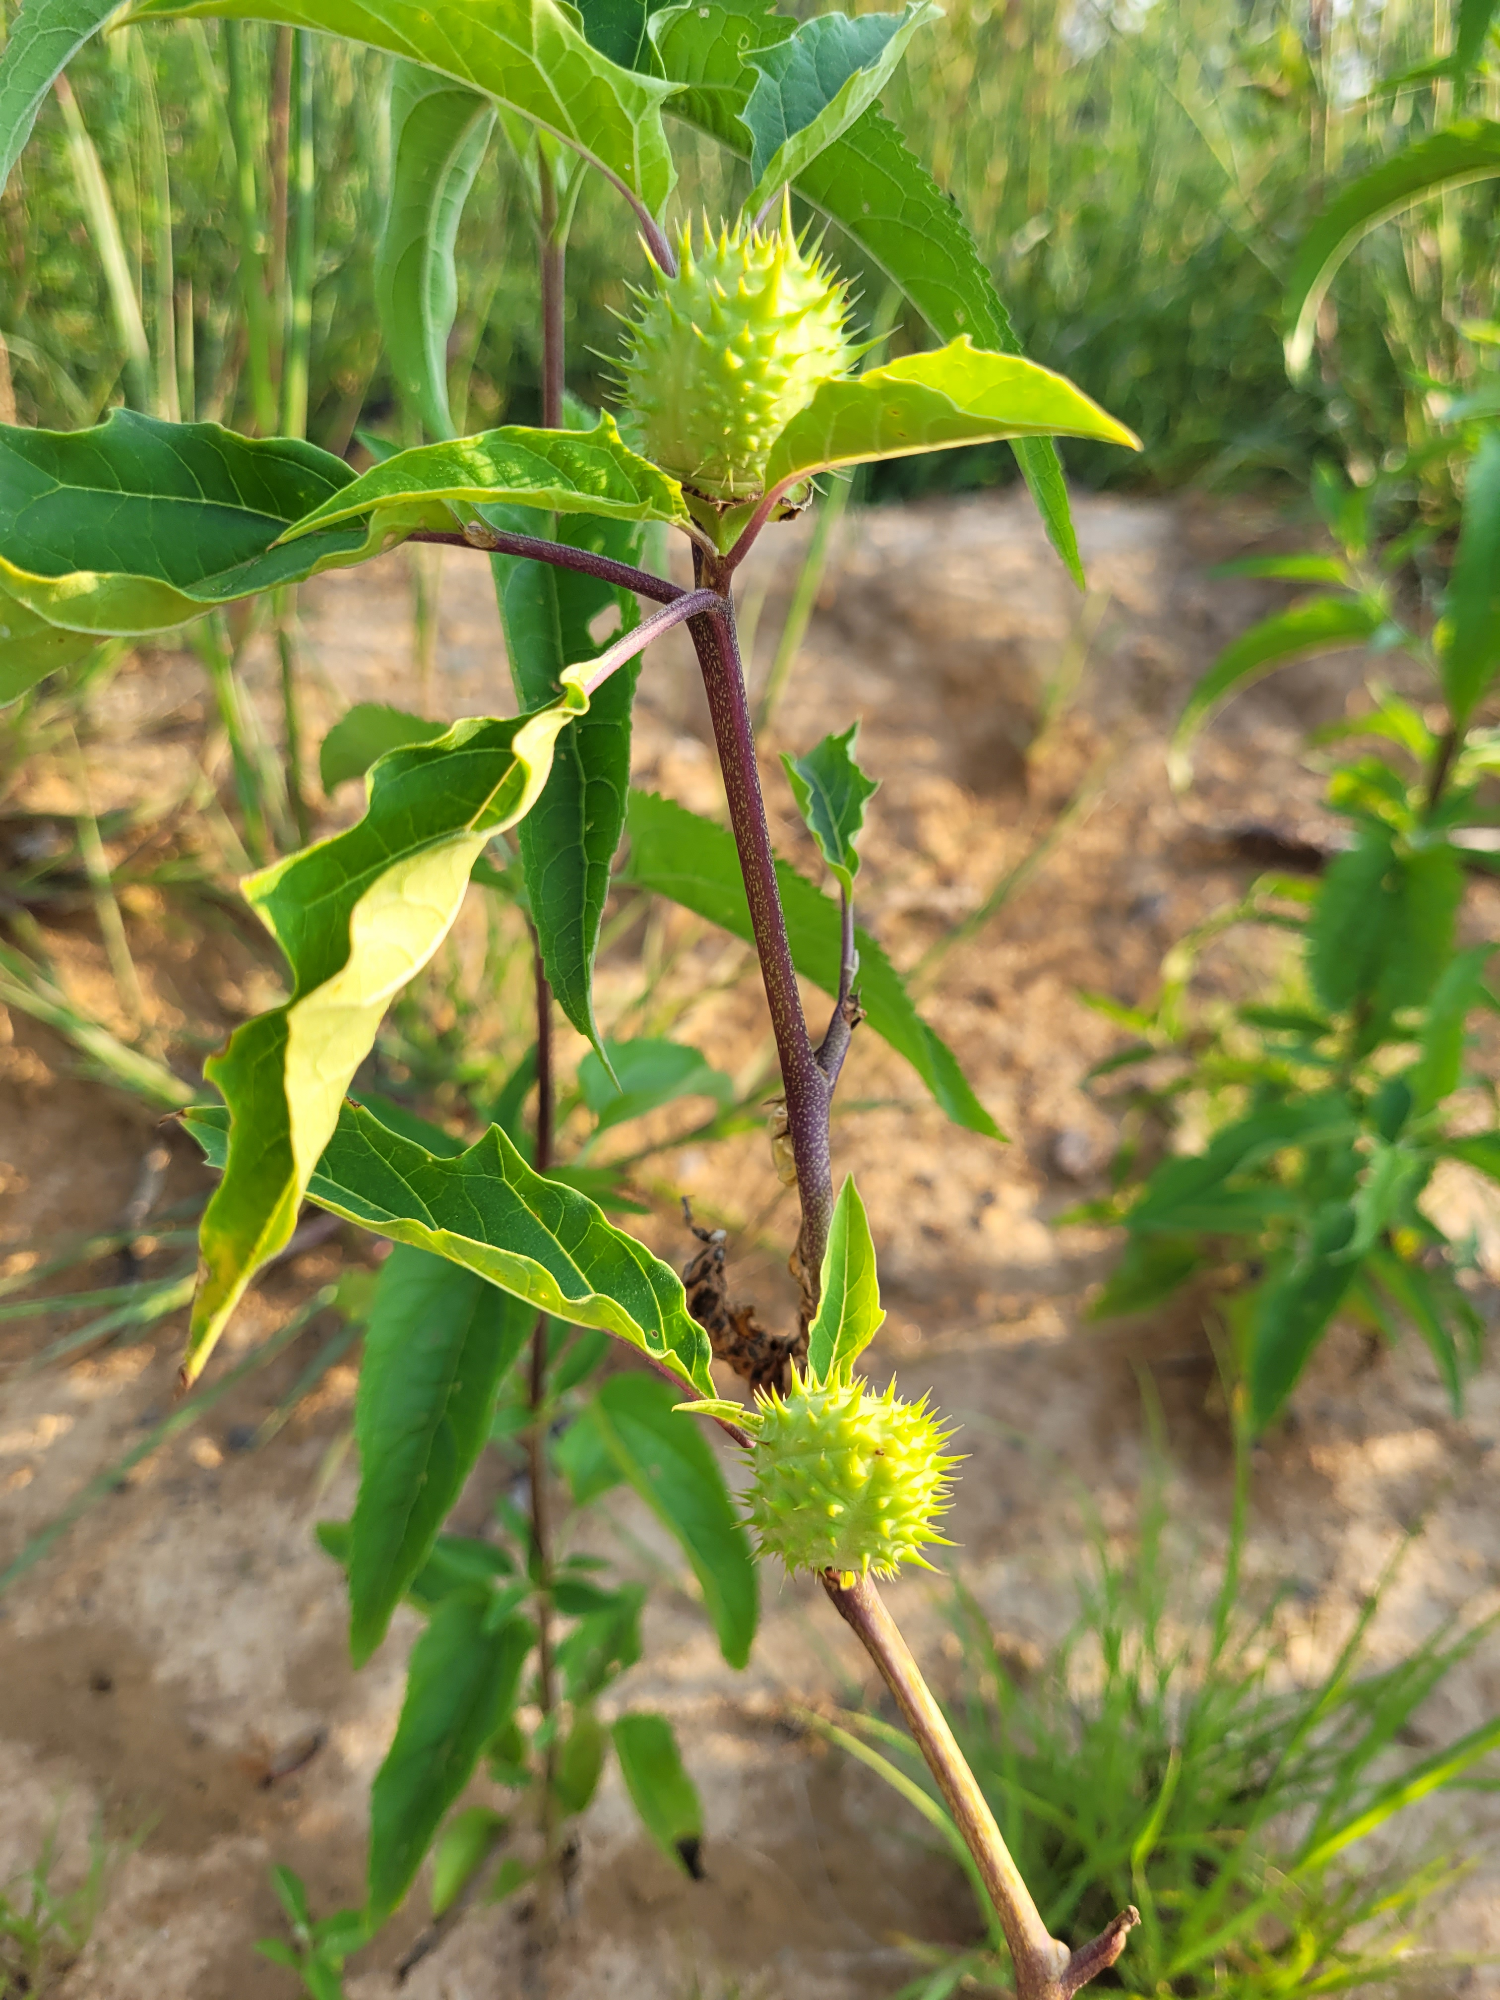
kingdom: Plantae
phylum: Tracheophyta
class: Magnoliopsida
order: Solanales
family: Solanaceae
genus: Datura
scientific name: Datura stramonium
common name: Thorn-apple
